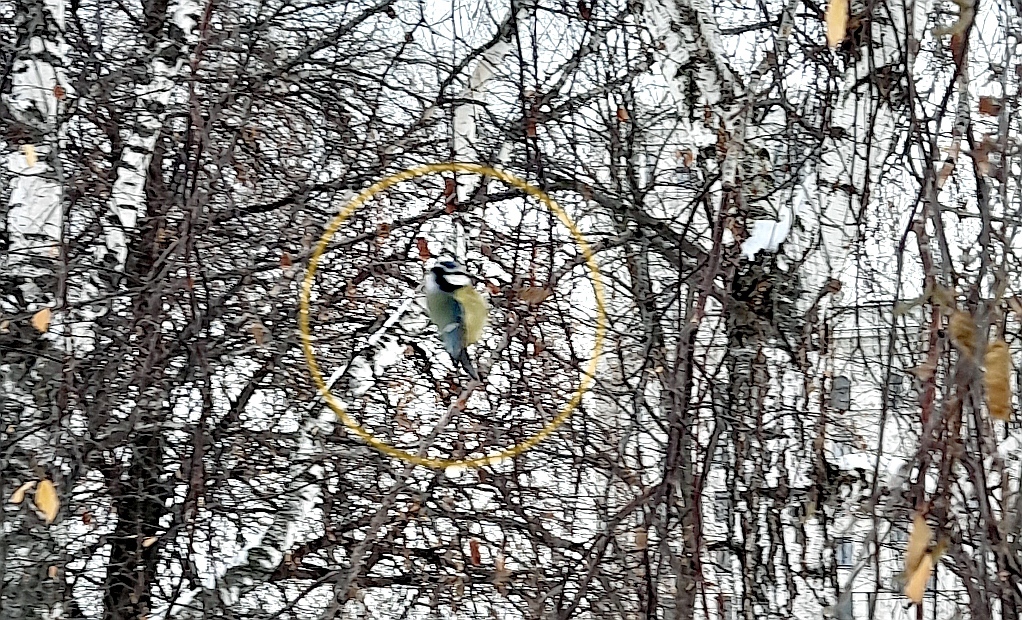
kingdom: Animalia
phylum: Chordata
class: Aves
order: Passeriformes
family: Paridae
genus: Cyanistes
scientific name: Cyanistes caeruleus
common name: Eurasian blue tit
